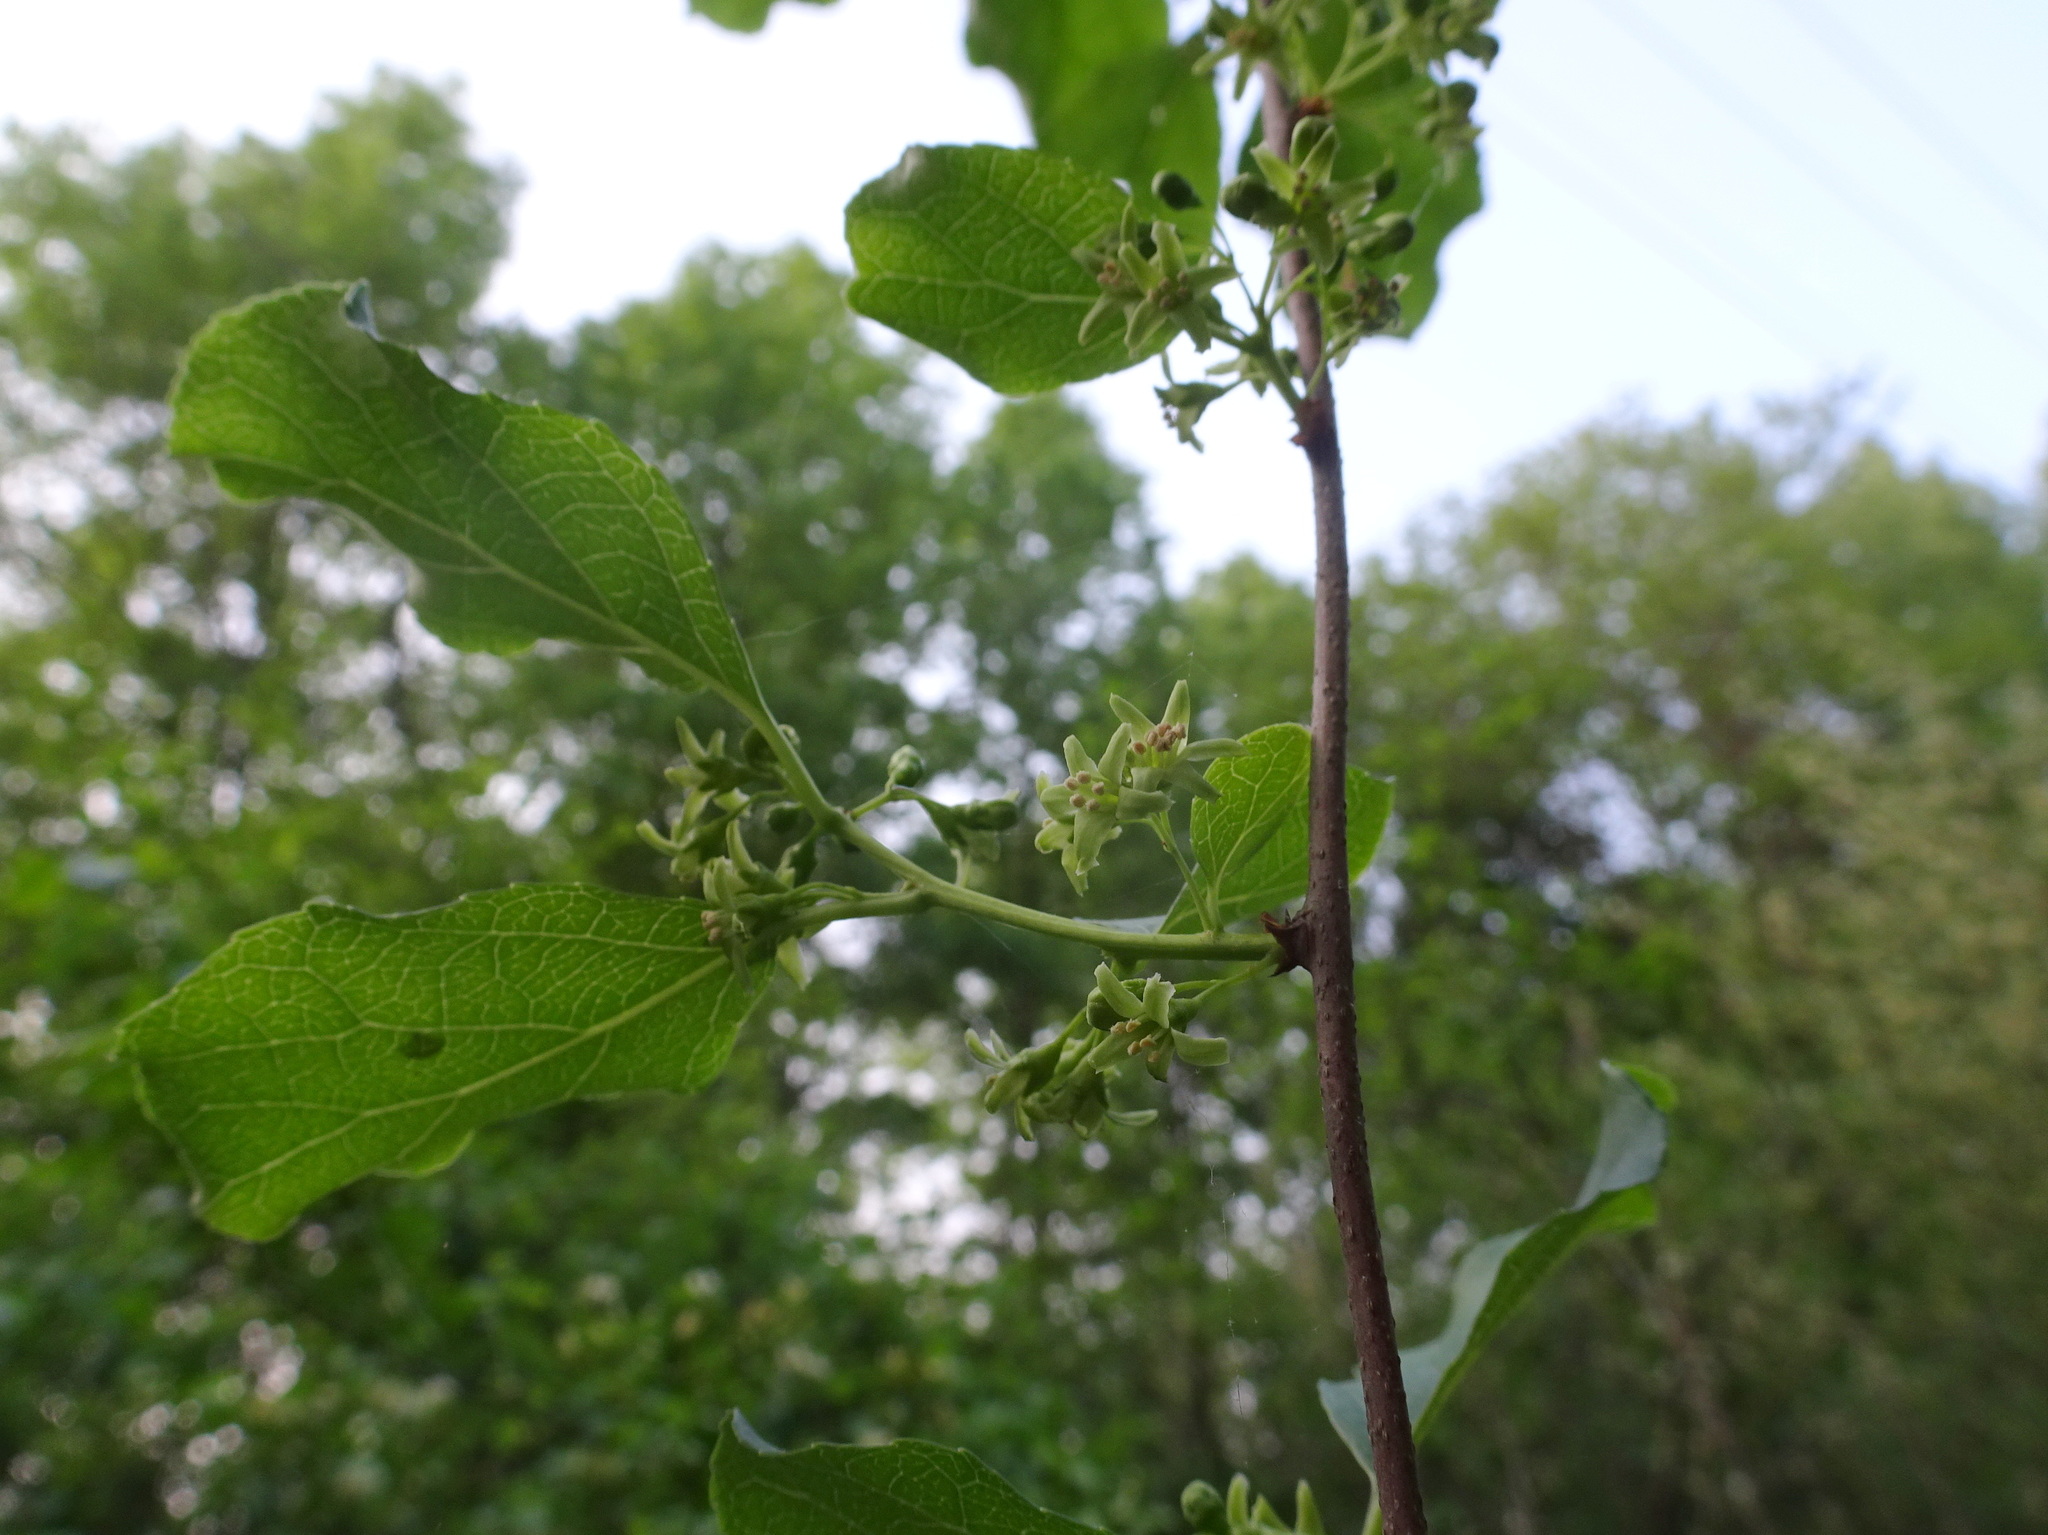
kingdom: Plantae
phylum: Tracheophyta
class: Magnoliopsida
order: Celastrales
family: Celastraceae
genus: Celastrus
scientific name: Celastrus orbiculatus
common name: Oriental bittersweet
